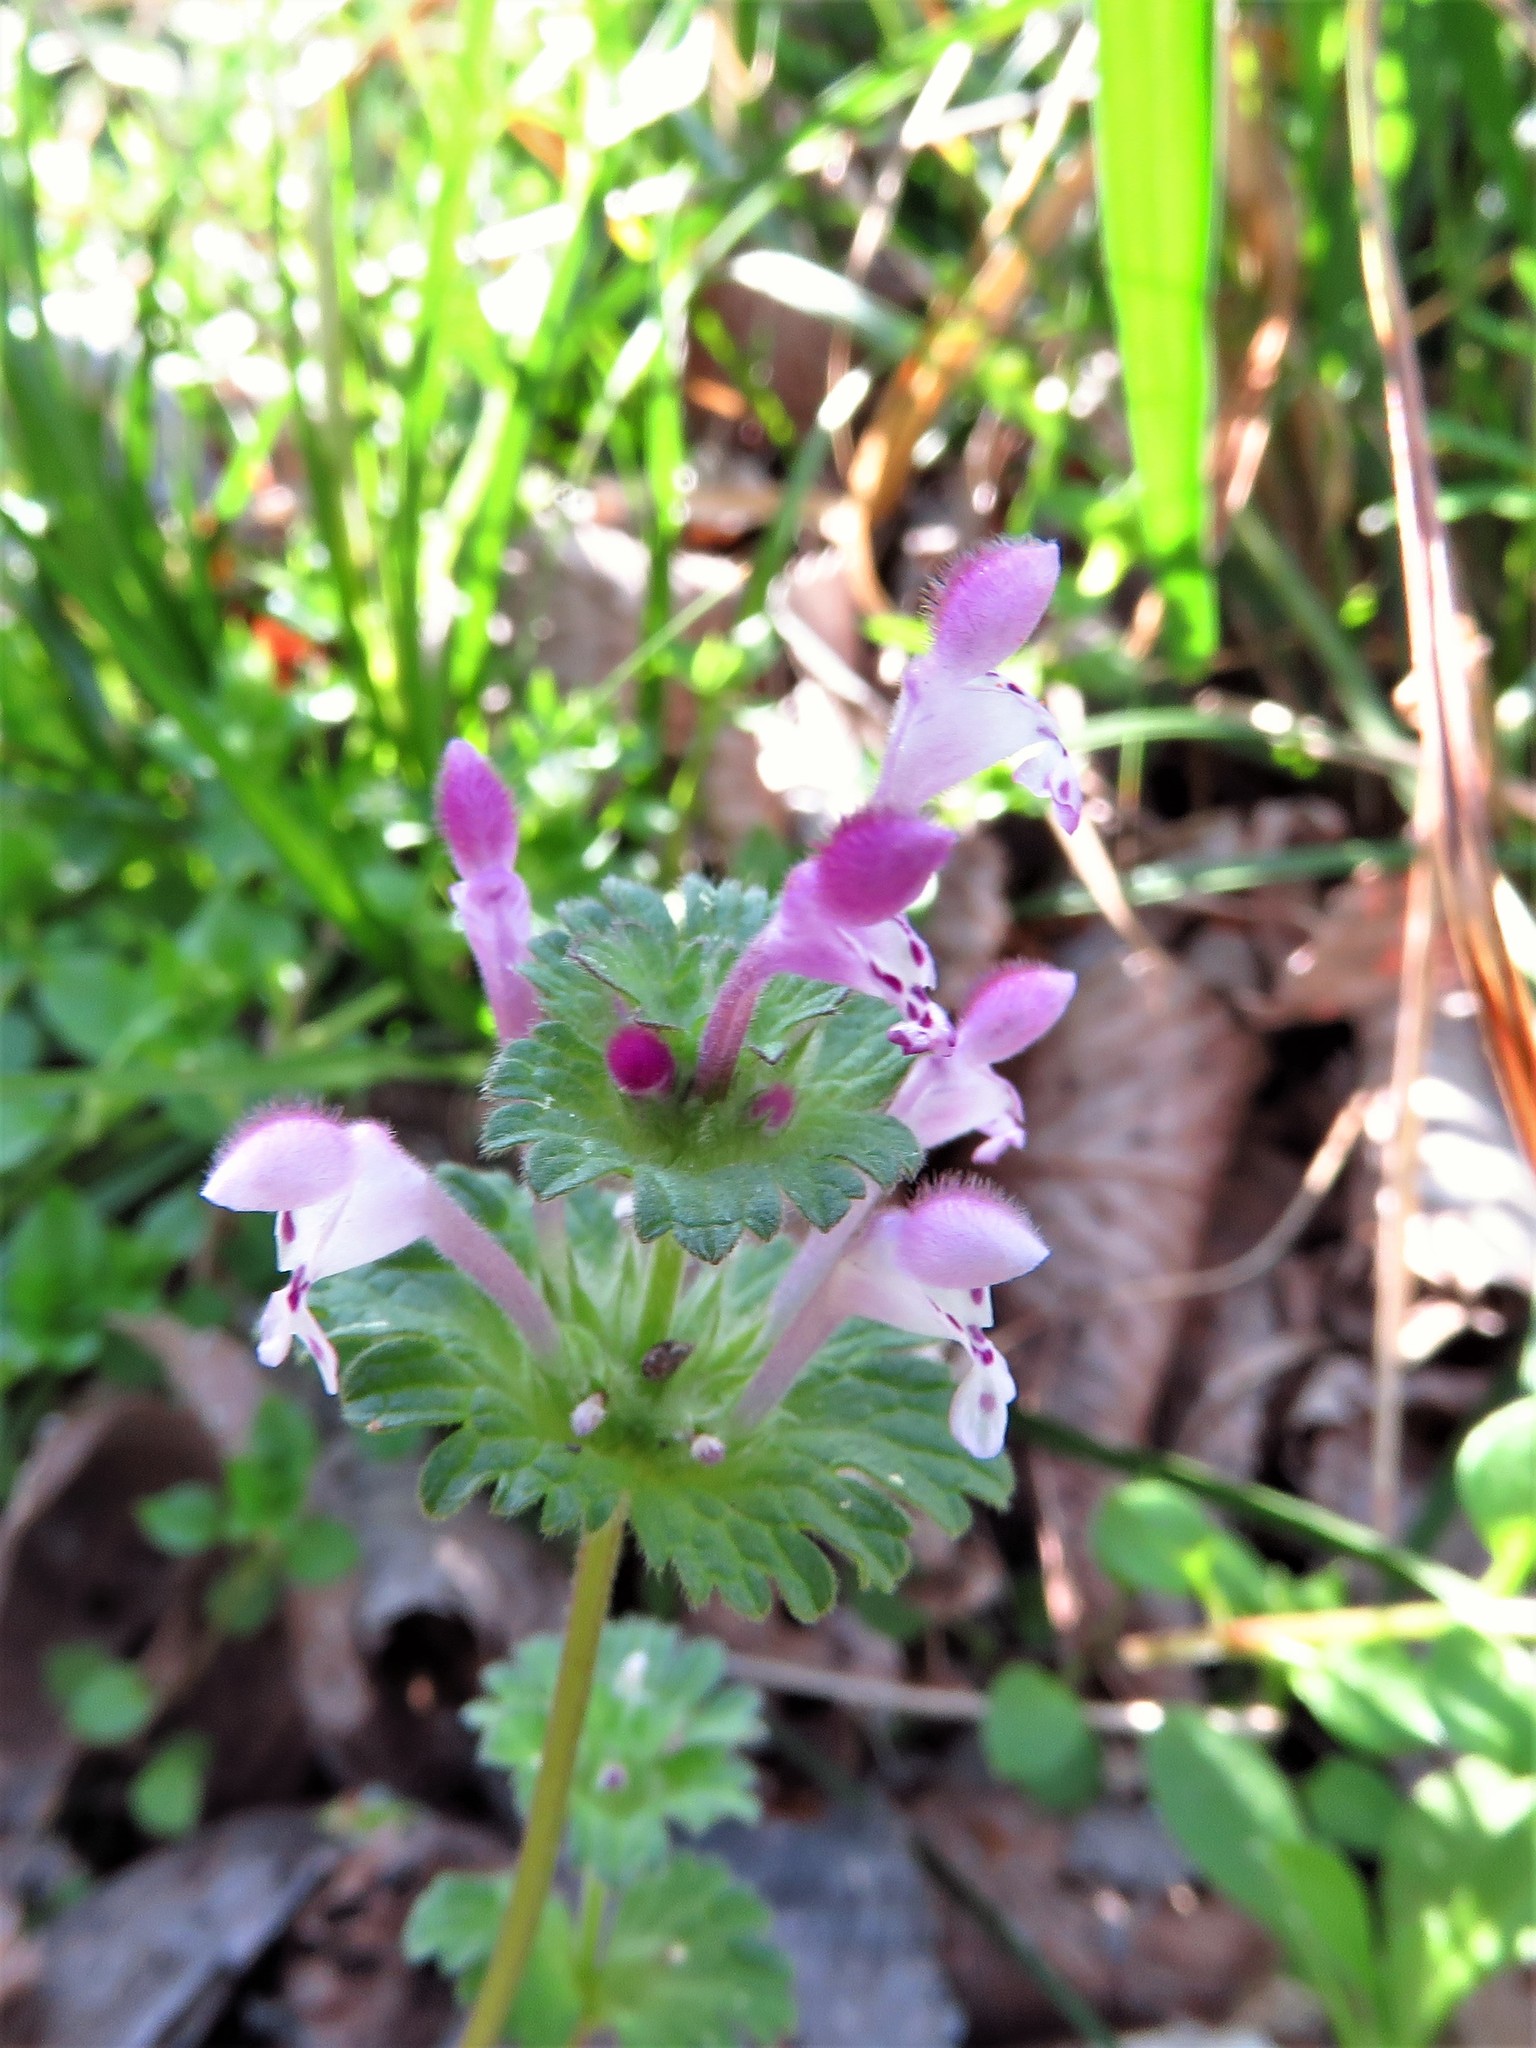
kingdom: Plantae
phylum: Tracheophyta
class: Magnoliopsida
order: Lamiales
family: Lamiaceae
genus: Lamium
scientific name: Lamium amplexicaule
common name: Henbit dead-nettle
